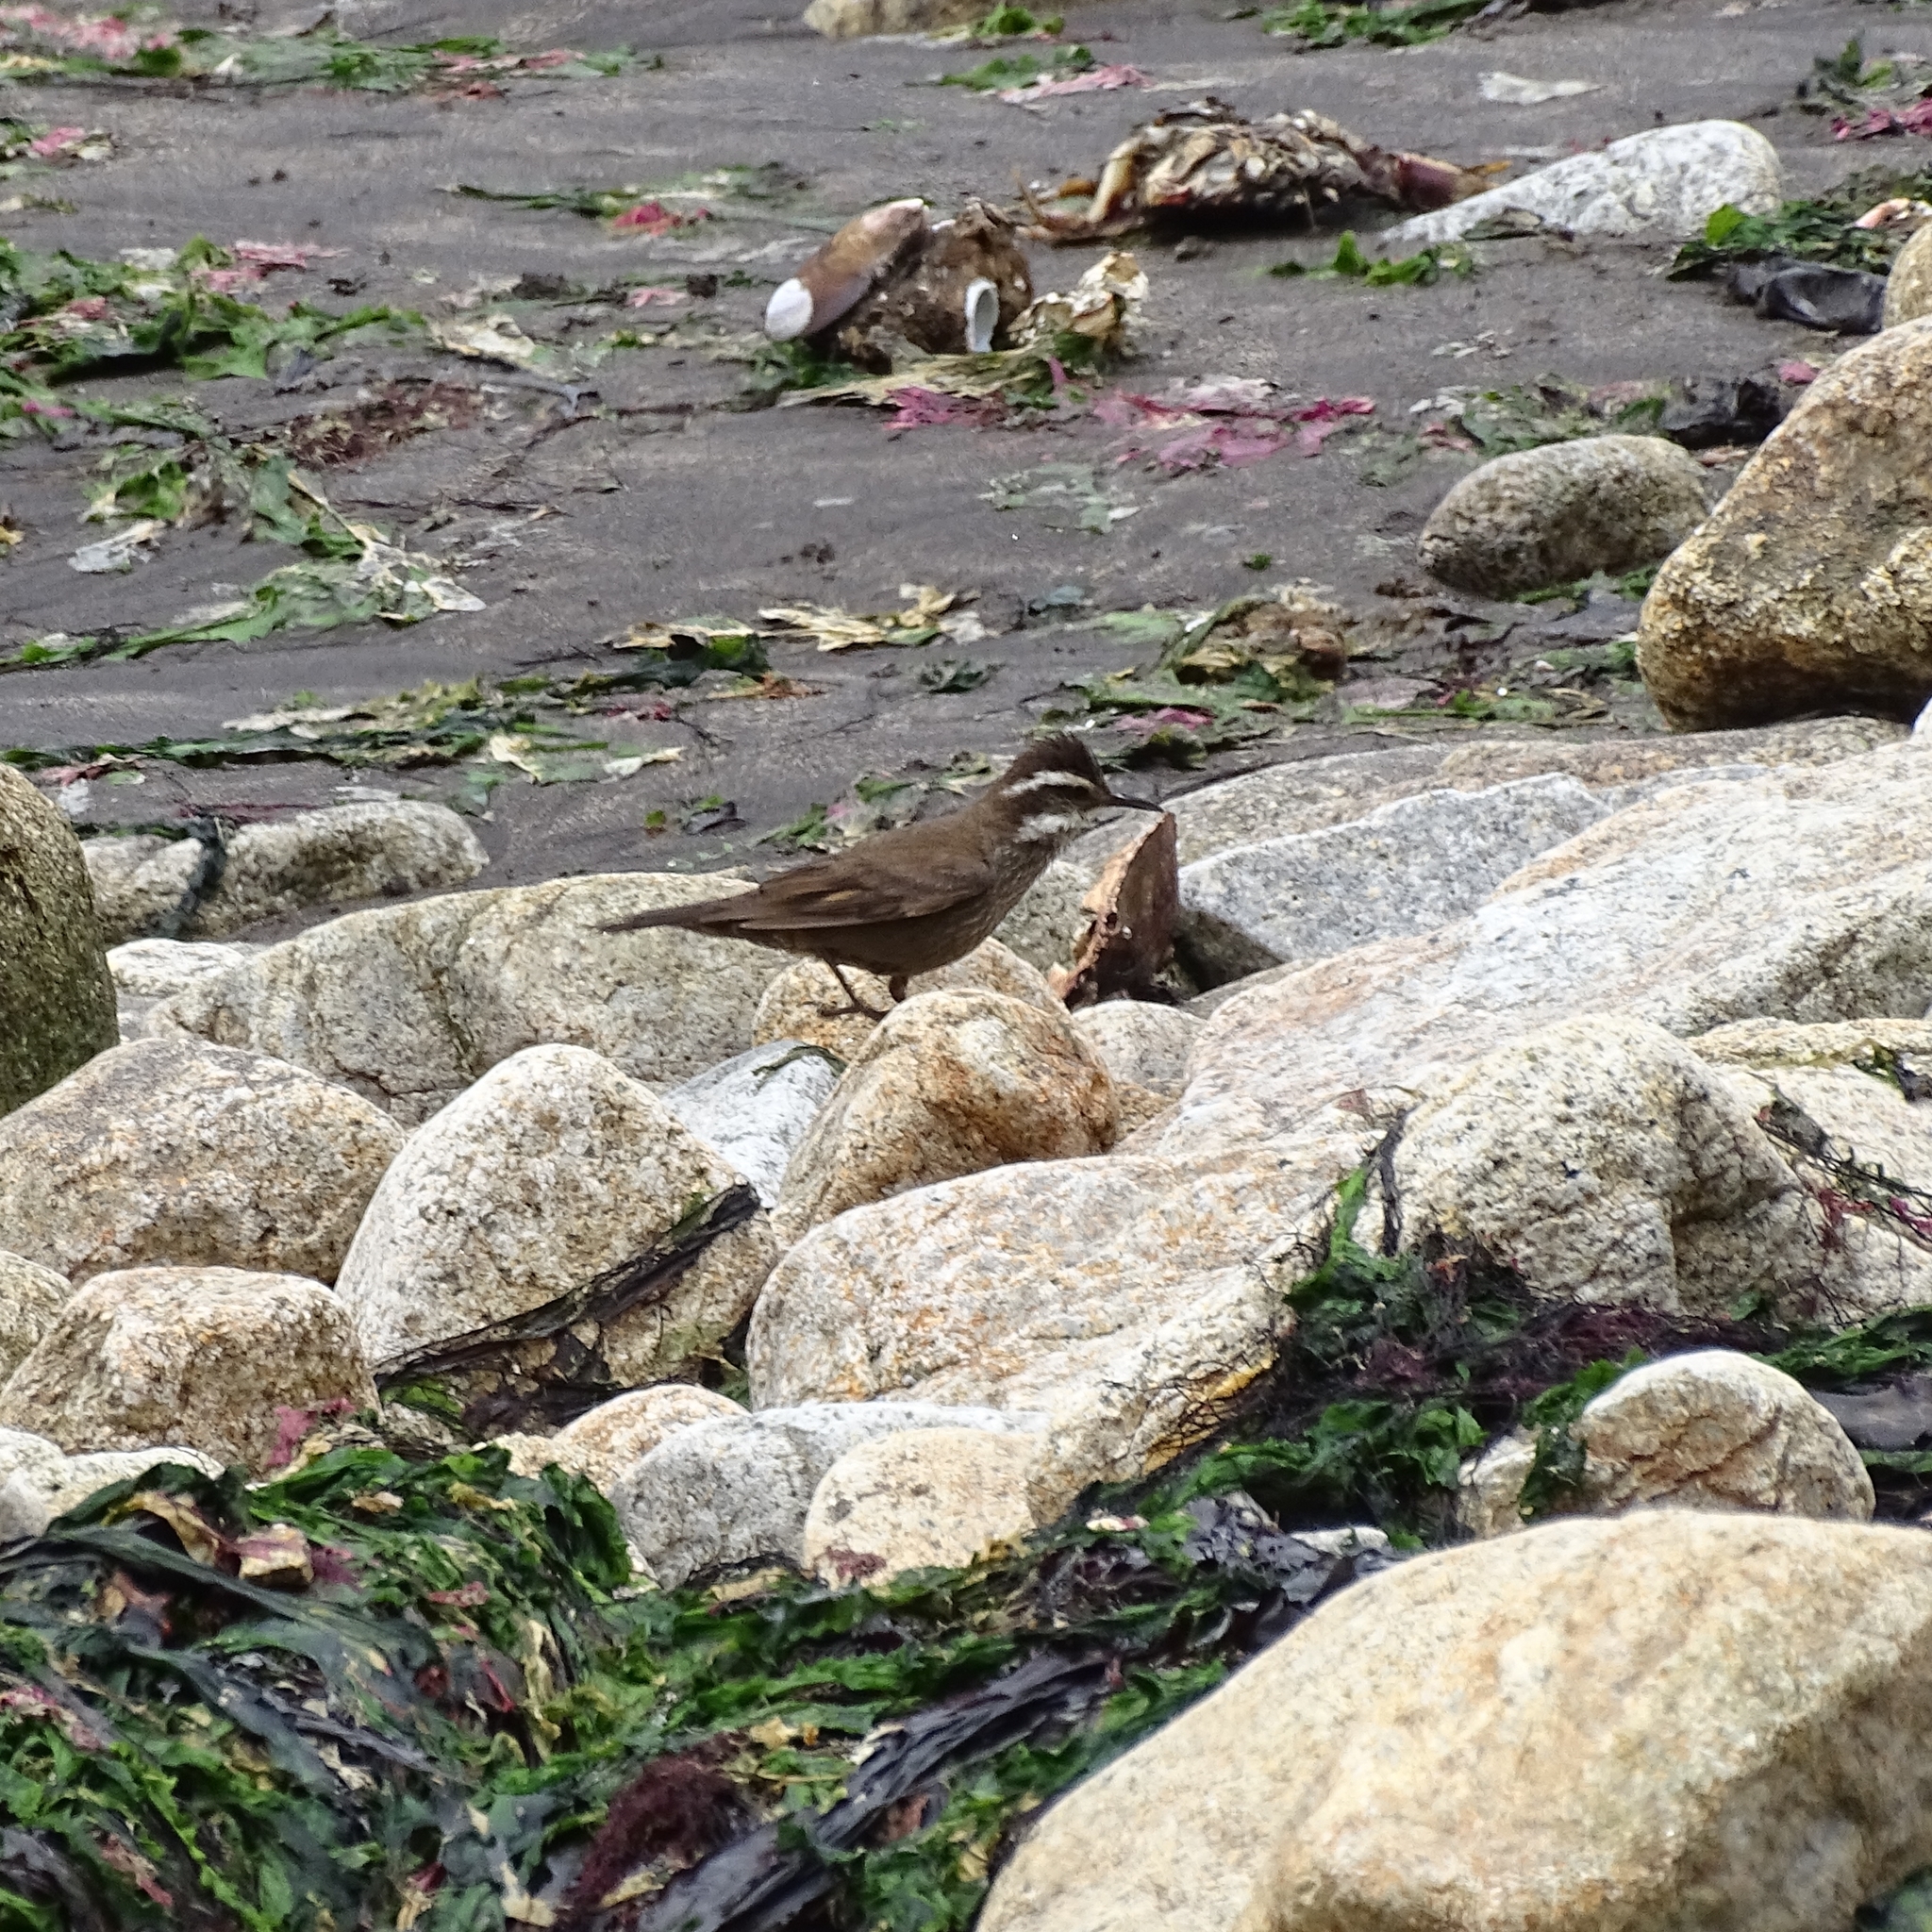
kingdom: Animalia
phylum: Chordata
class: Aves
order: Passeriformes
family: Furnariidae
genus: Cinclodes
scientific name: Cinclodes patagonicus
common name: Dark-bellied cinclodes
